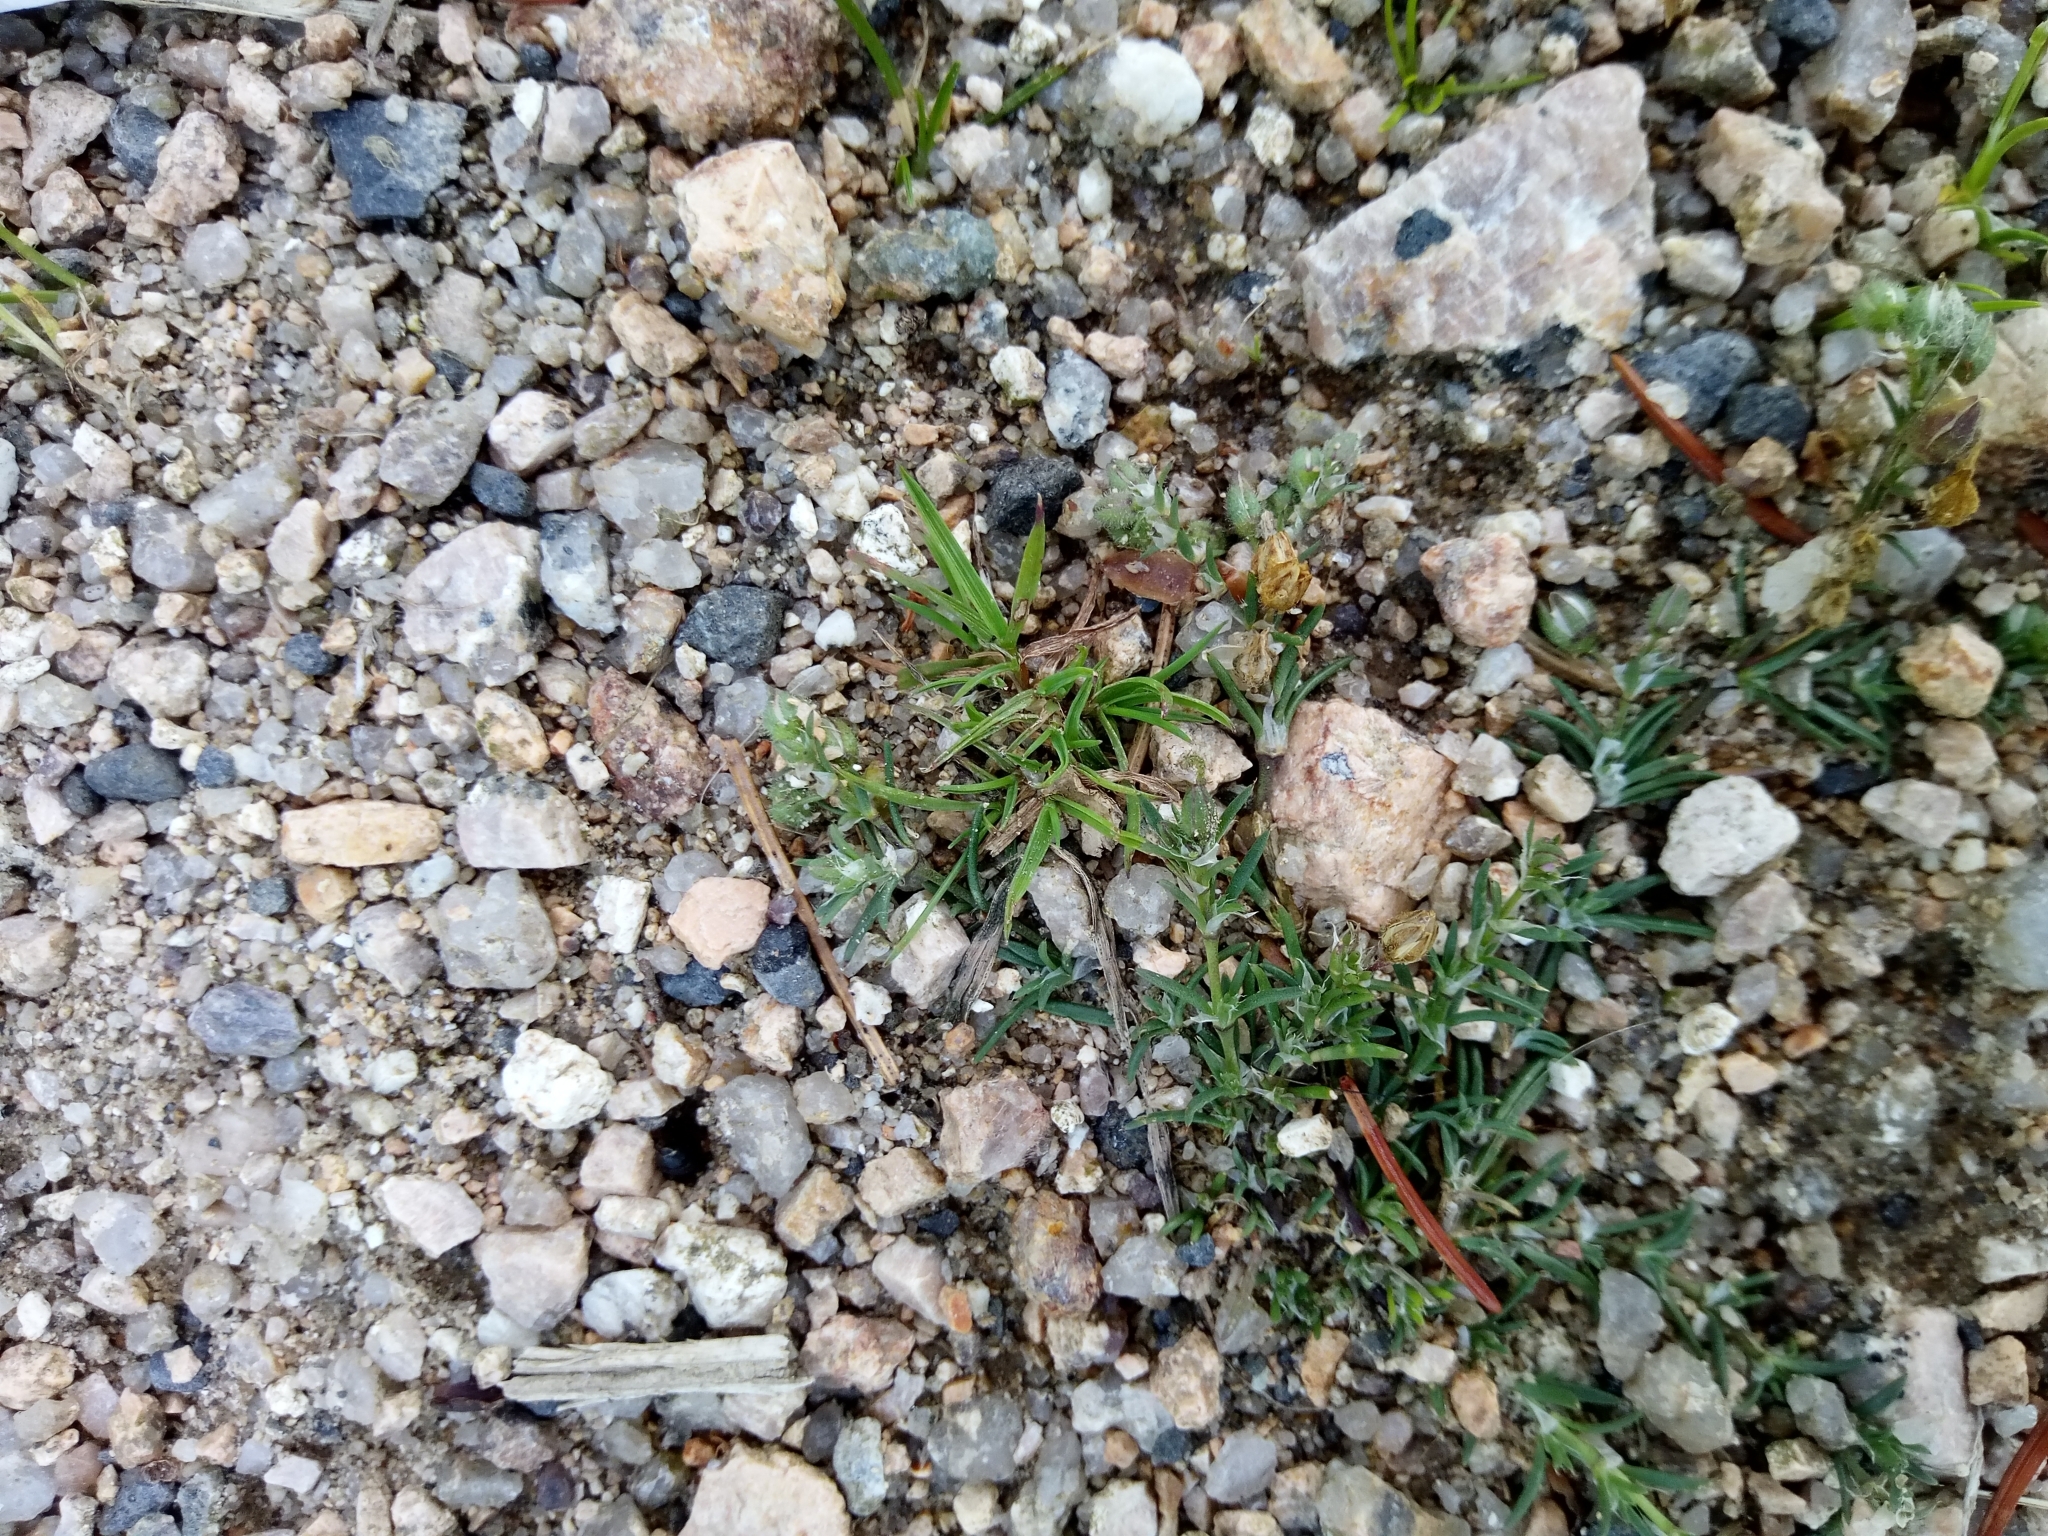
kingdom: Plantae
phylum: Tracheophyta
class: Magnoliopsida
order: Caryophyllales
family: Caryophyllaceae
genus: Spergularia
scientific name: Spergularia rubra
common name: Red sand-spurrey
